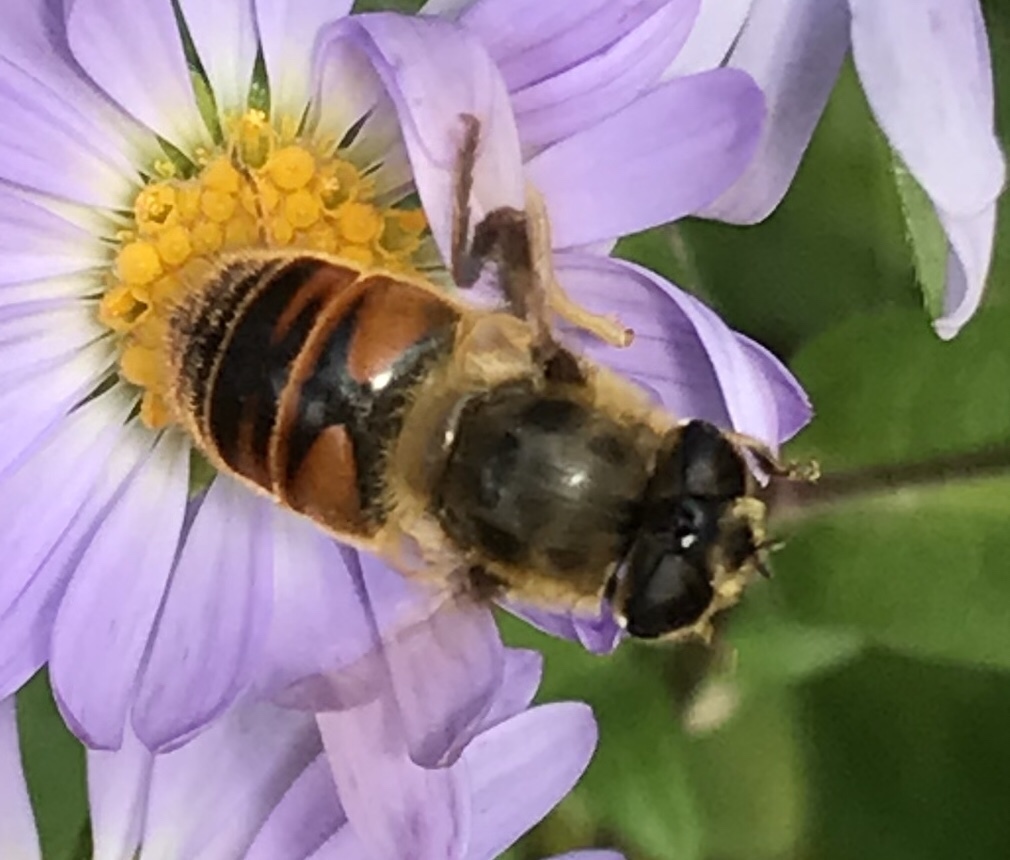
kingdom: Animalia
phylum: Arthropoda
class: Insecta
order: Diptera
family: Syrphidae
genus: Eristalis
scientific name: Eristalis tenax
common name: Drone fly
